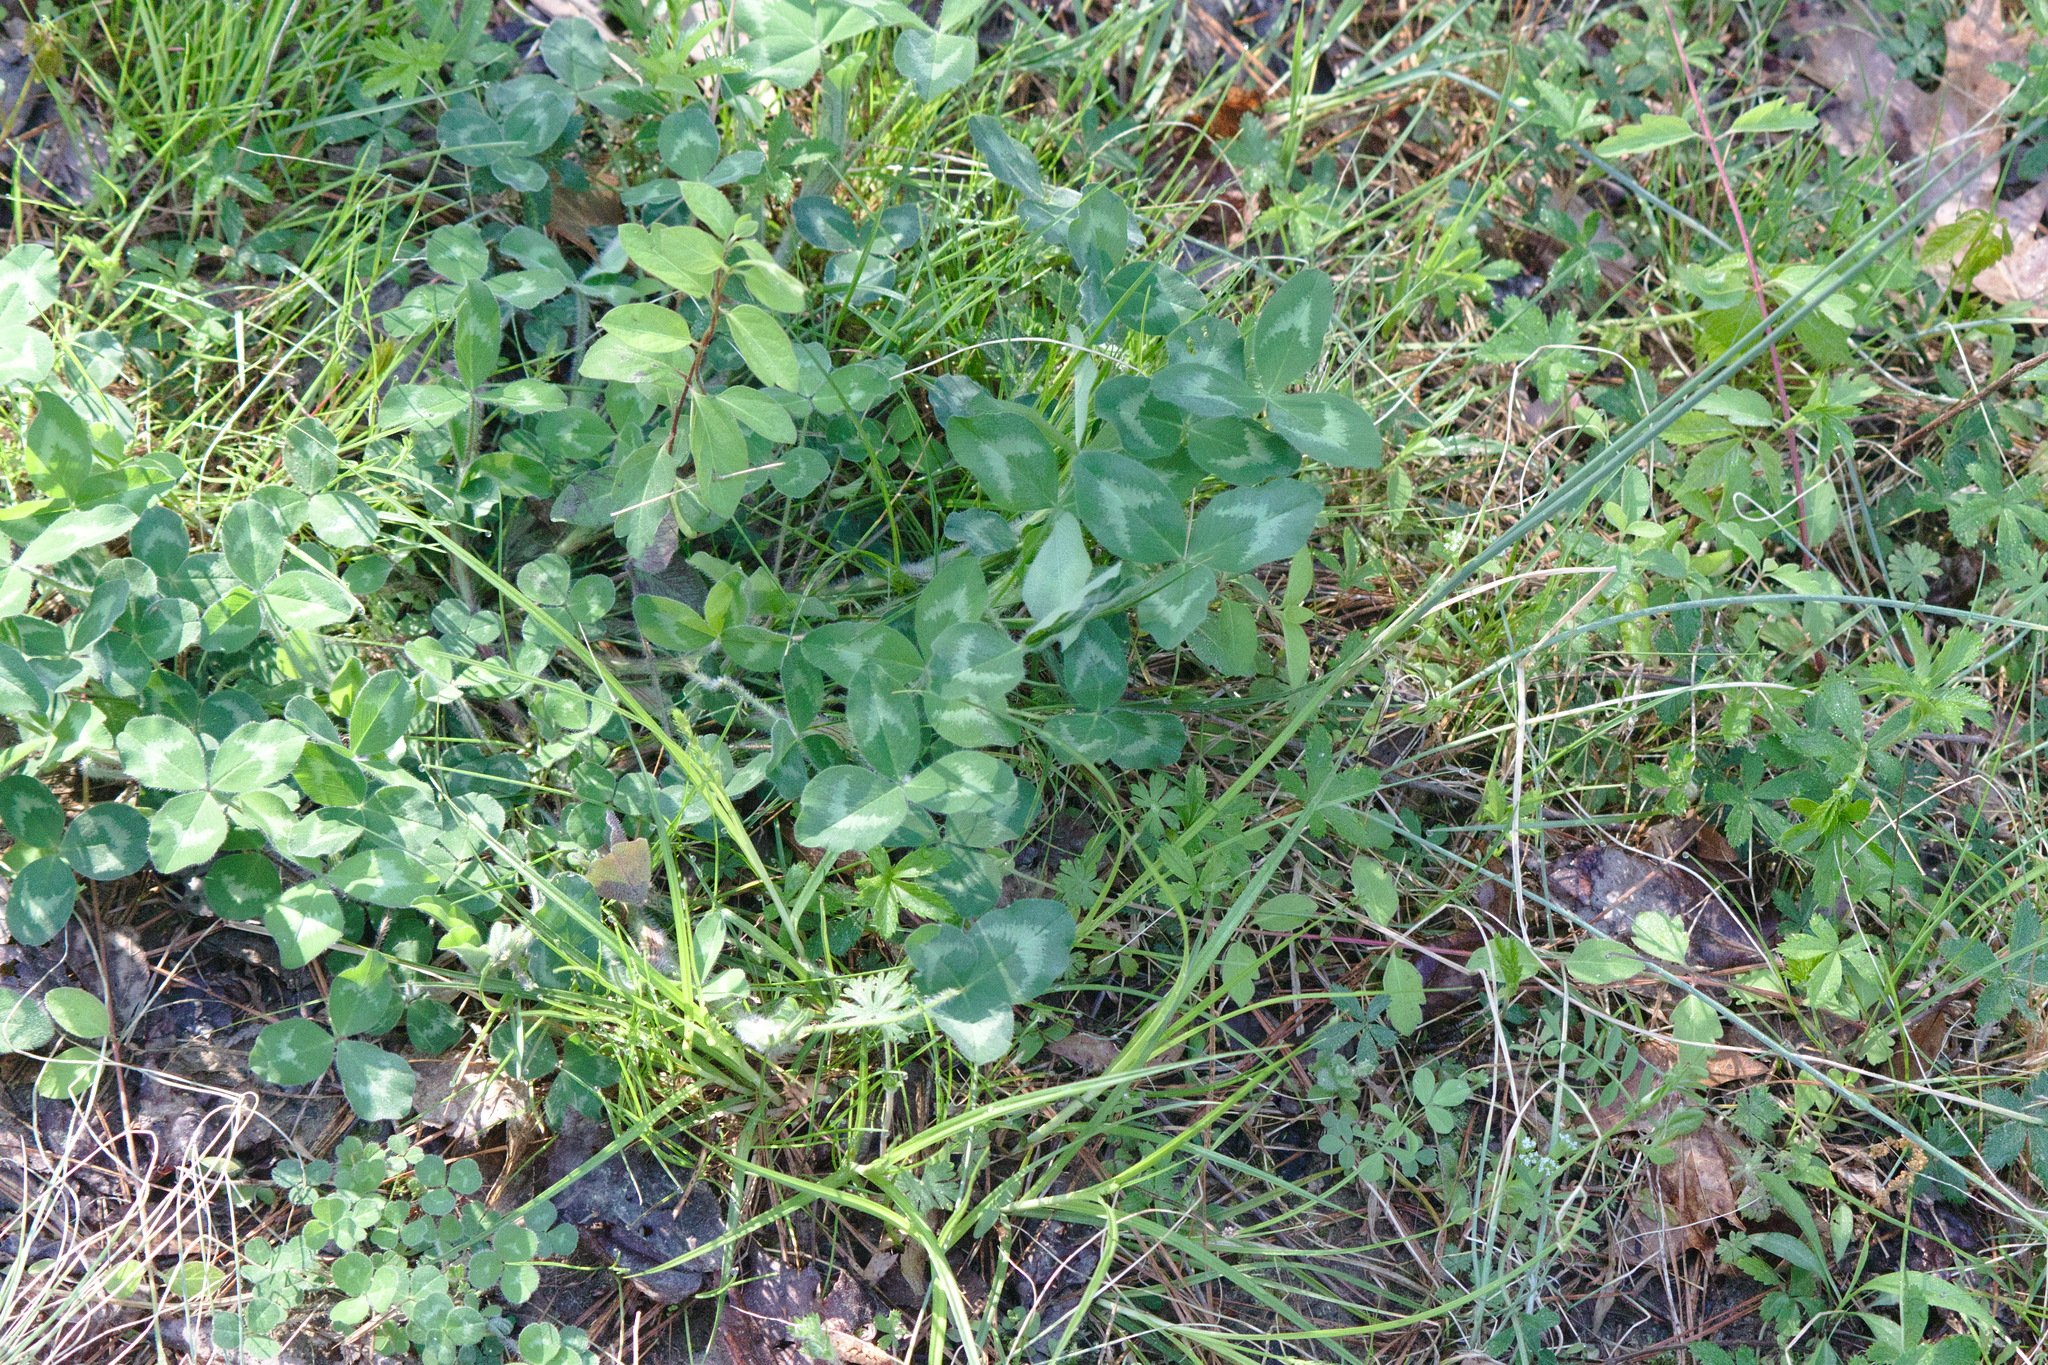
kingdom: Plantae
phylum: Tracheophyta
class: Magnoliopsida
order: Fabales
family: Fabaceae
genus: Trifolium
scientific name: Trifolium pratense
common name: Red clover
